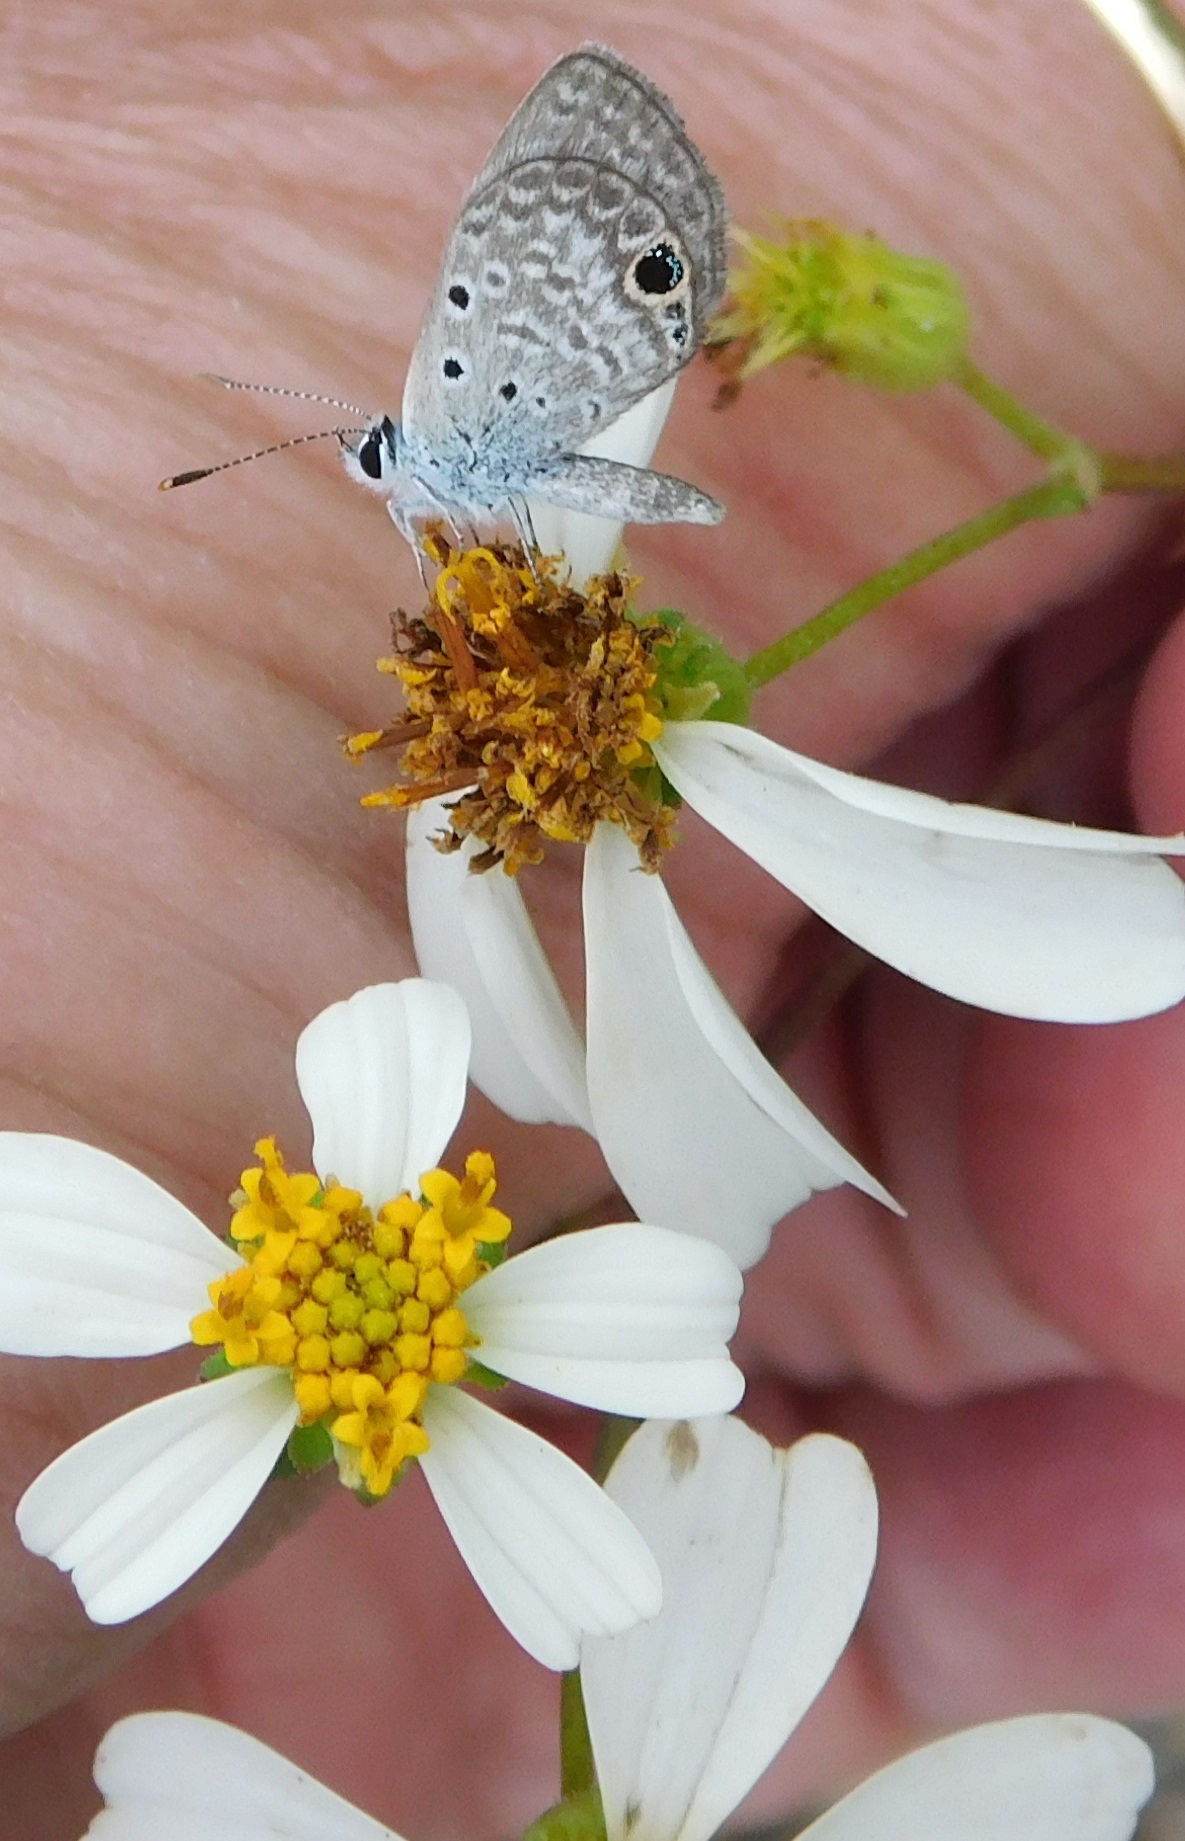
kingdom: Animalia
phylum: Arthropoda
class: Insecta
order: Lepidoptera
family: Lycaenidae
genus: Hemiargus
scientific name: Hemiargus ceraunus
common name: Ceraunus blue
